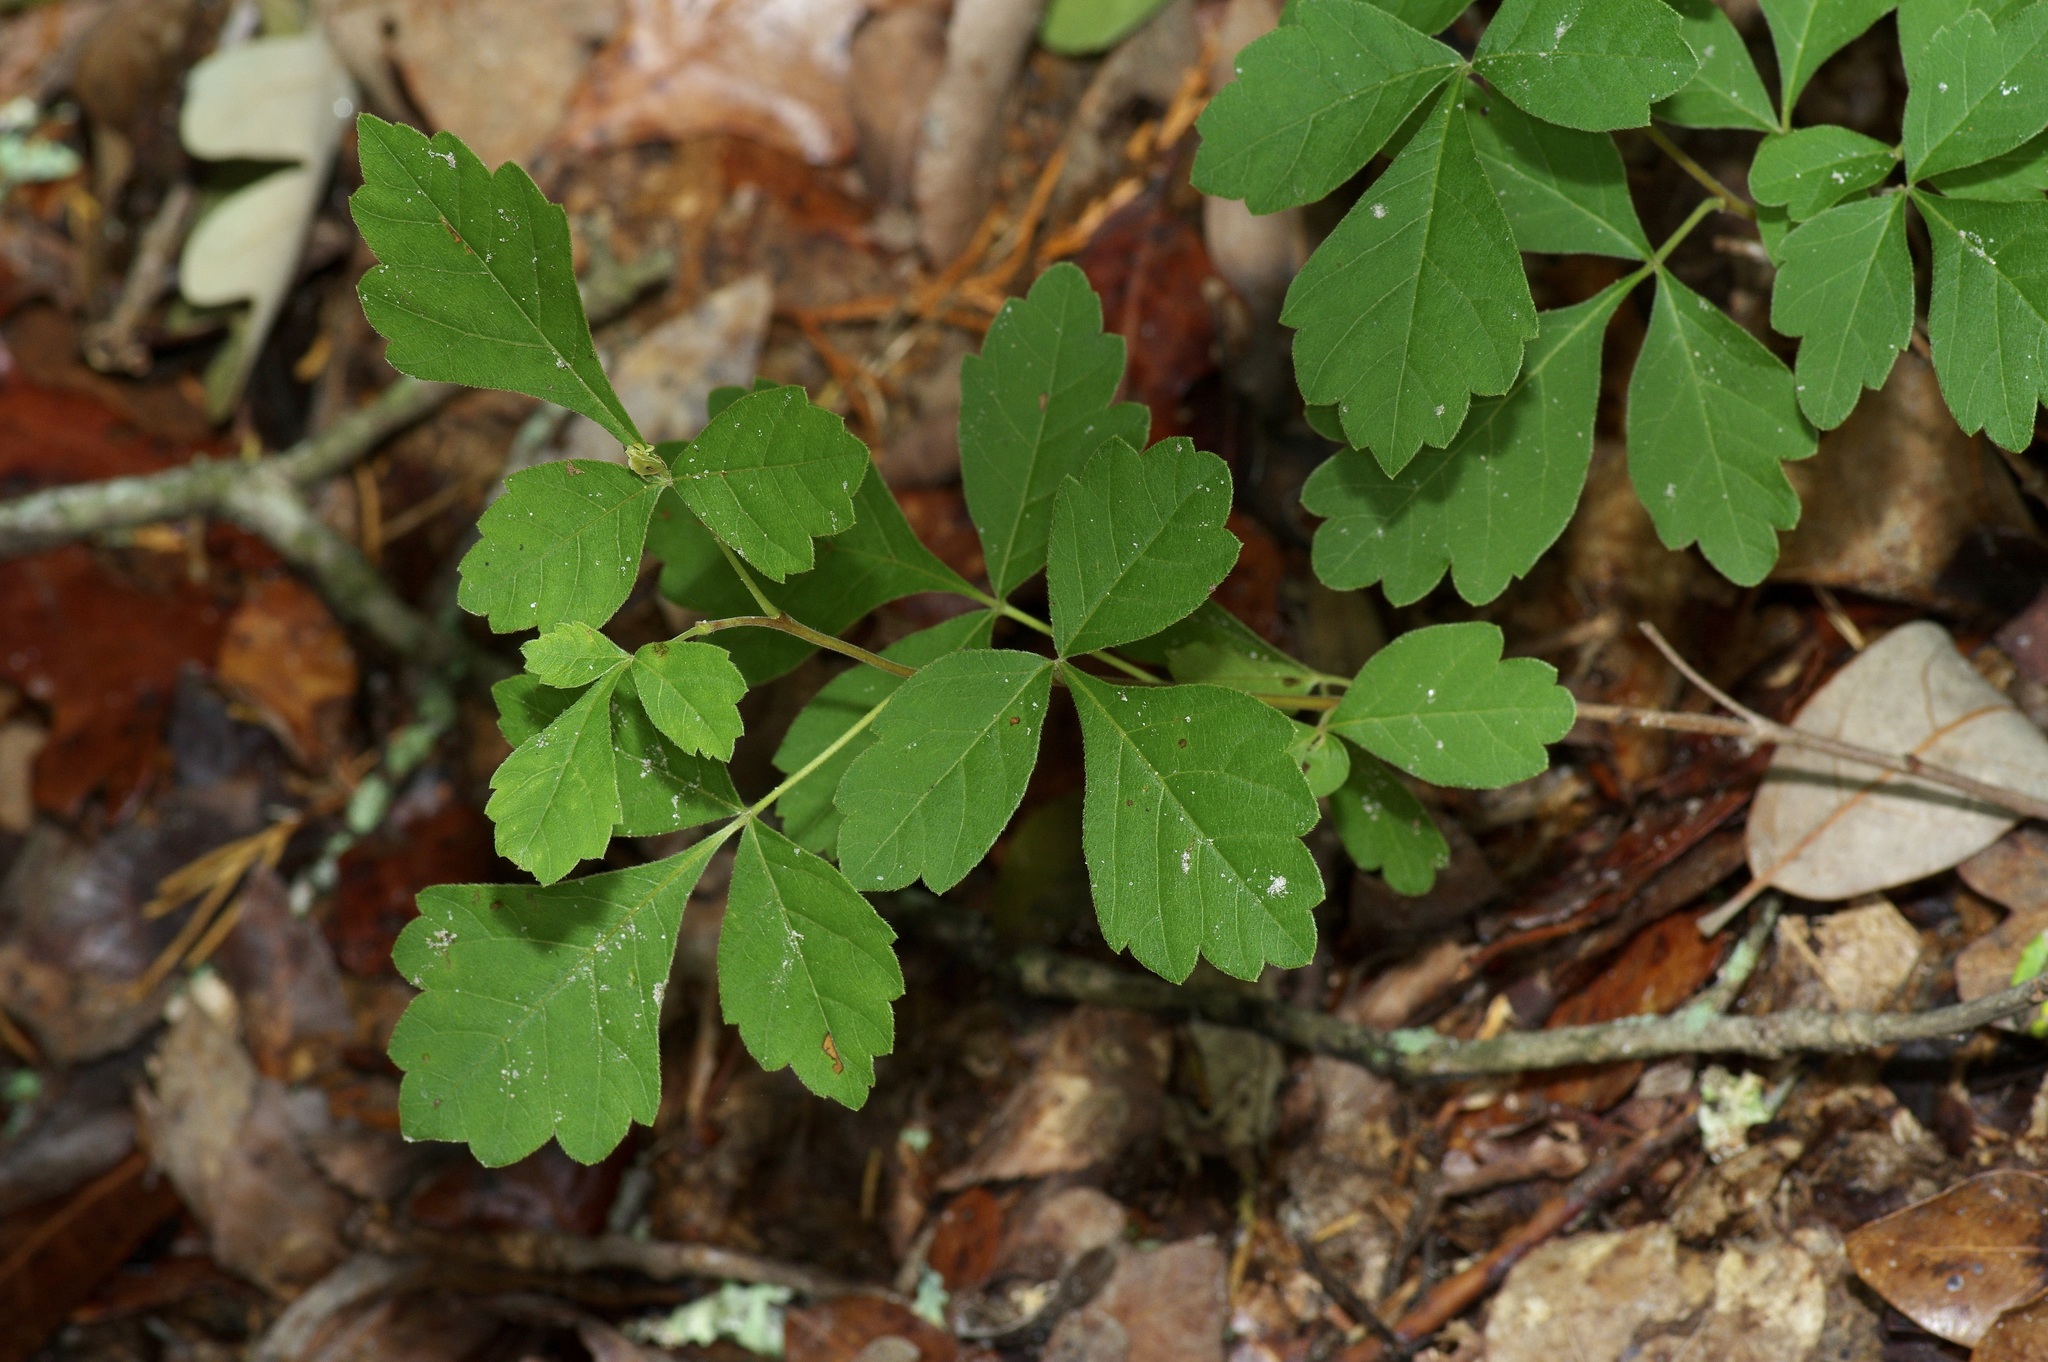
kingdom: Plantae
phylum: Tracheophyta
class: Magnoliopsida
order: Sapindales
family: Anacardiaceae
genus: Rhus
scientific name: Rhus aromatica
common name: Aromatic sumac
